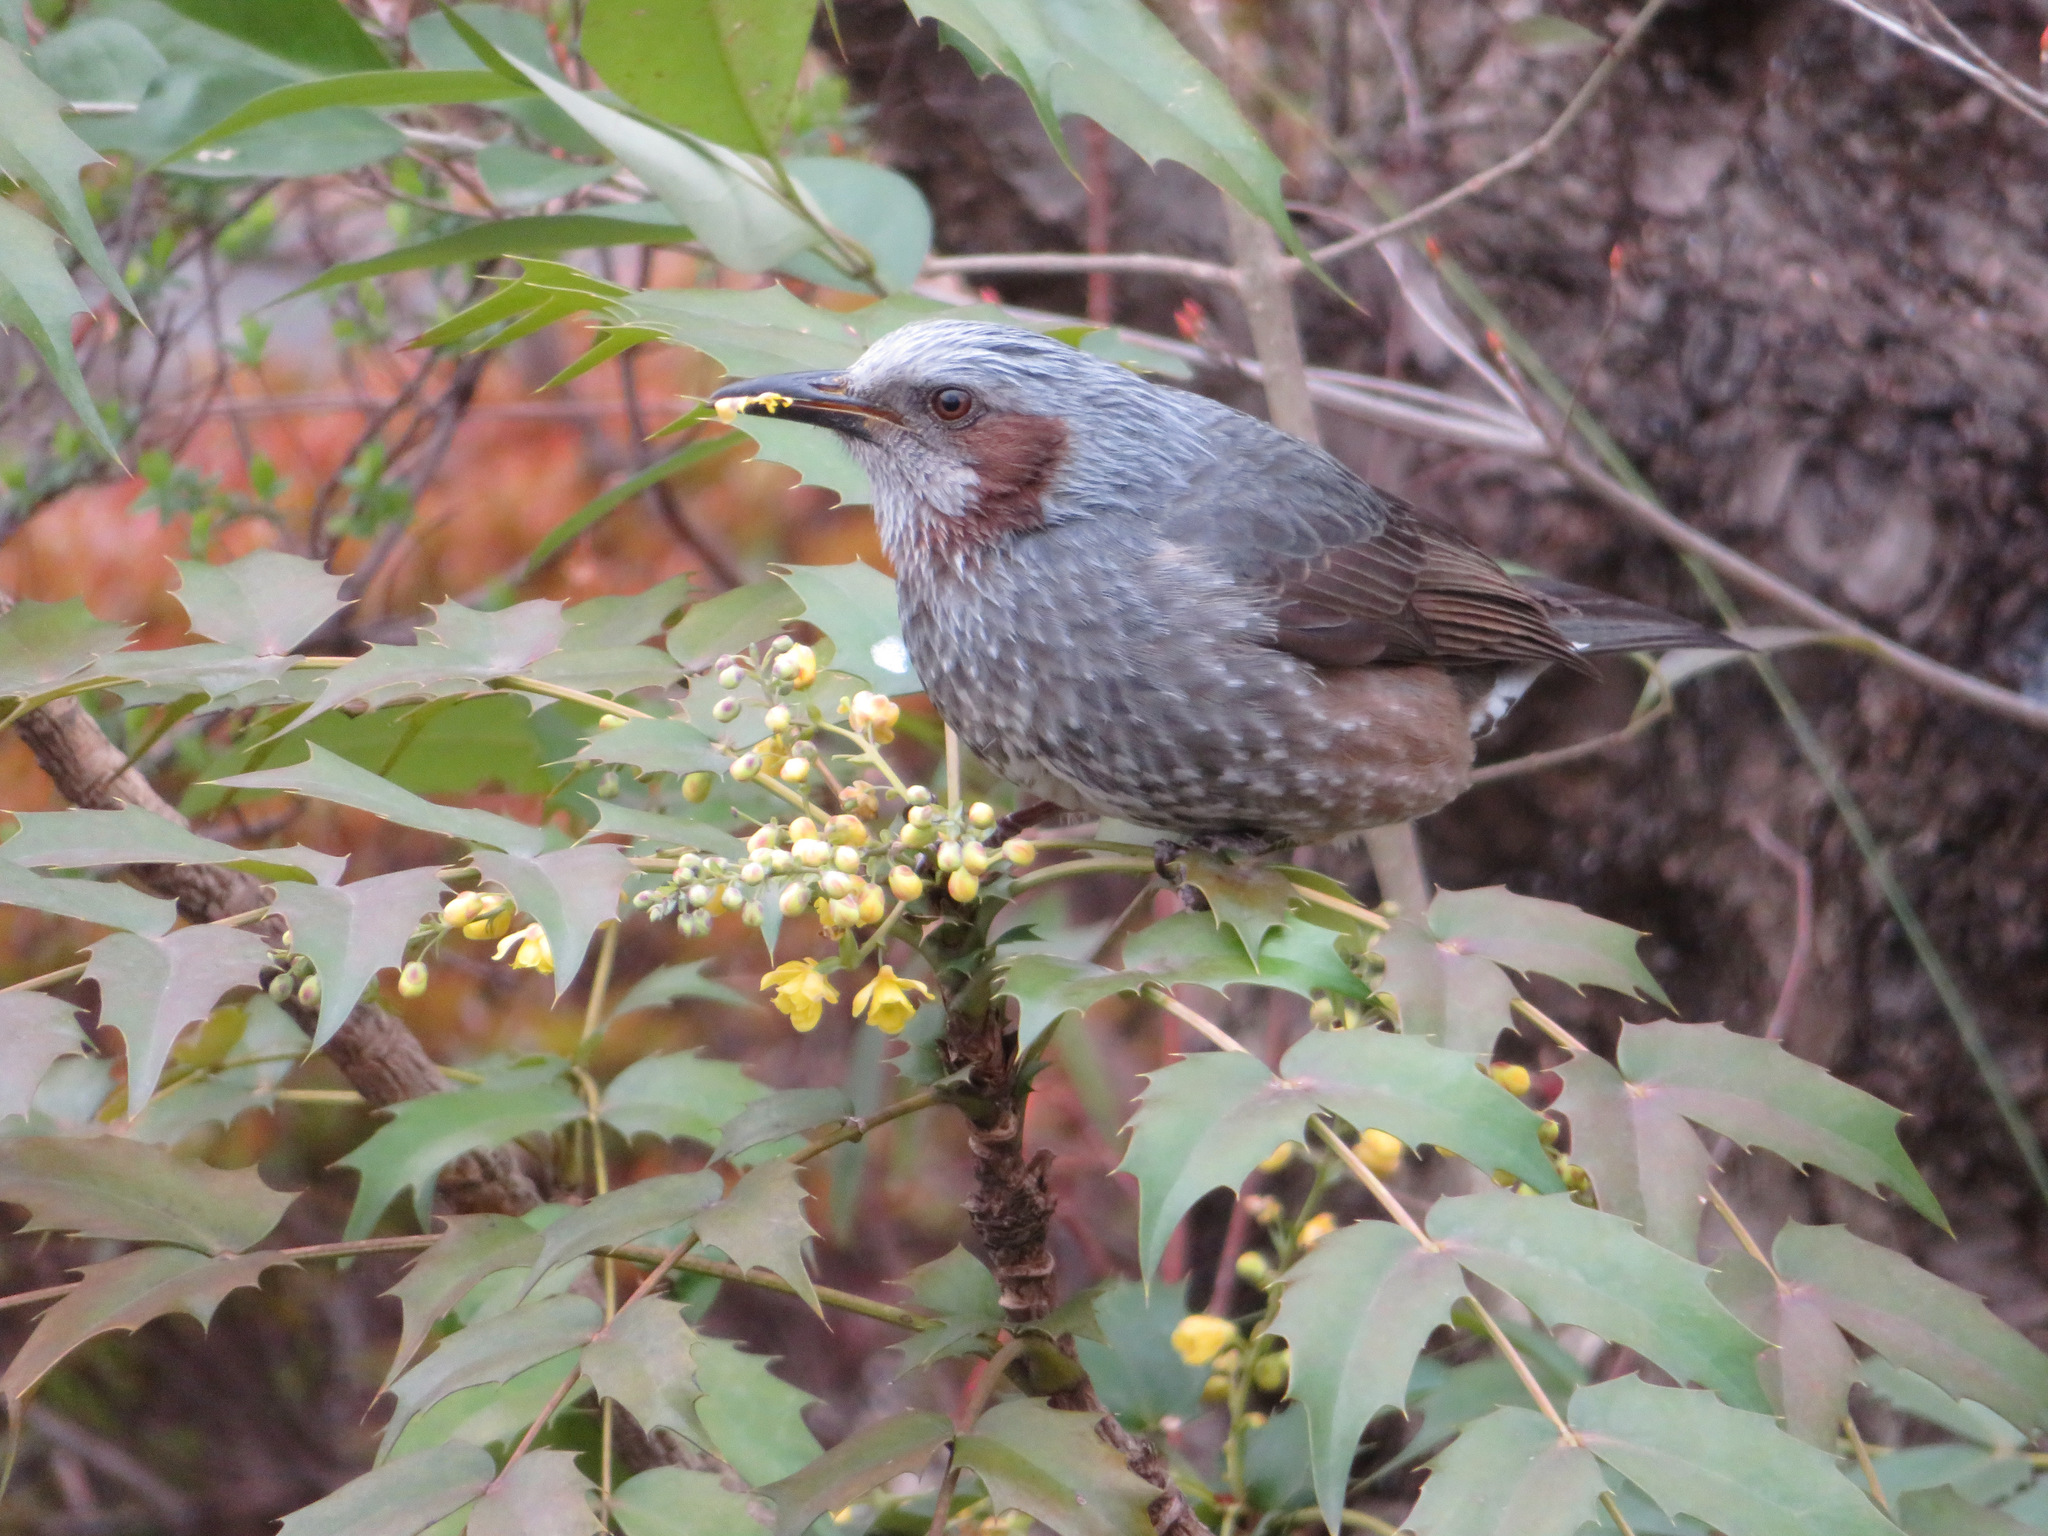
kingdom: Animalia
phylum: Chordata
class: Aves
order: Passeriformes
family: Pycnonotidae
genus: Hypsipetes
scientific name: Hypsipetes amaurotis
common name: Brown-eared bulbul
